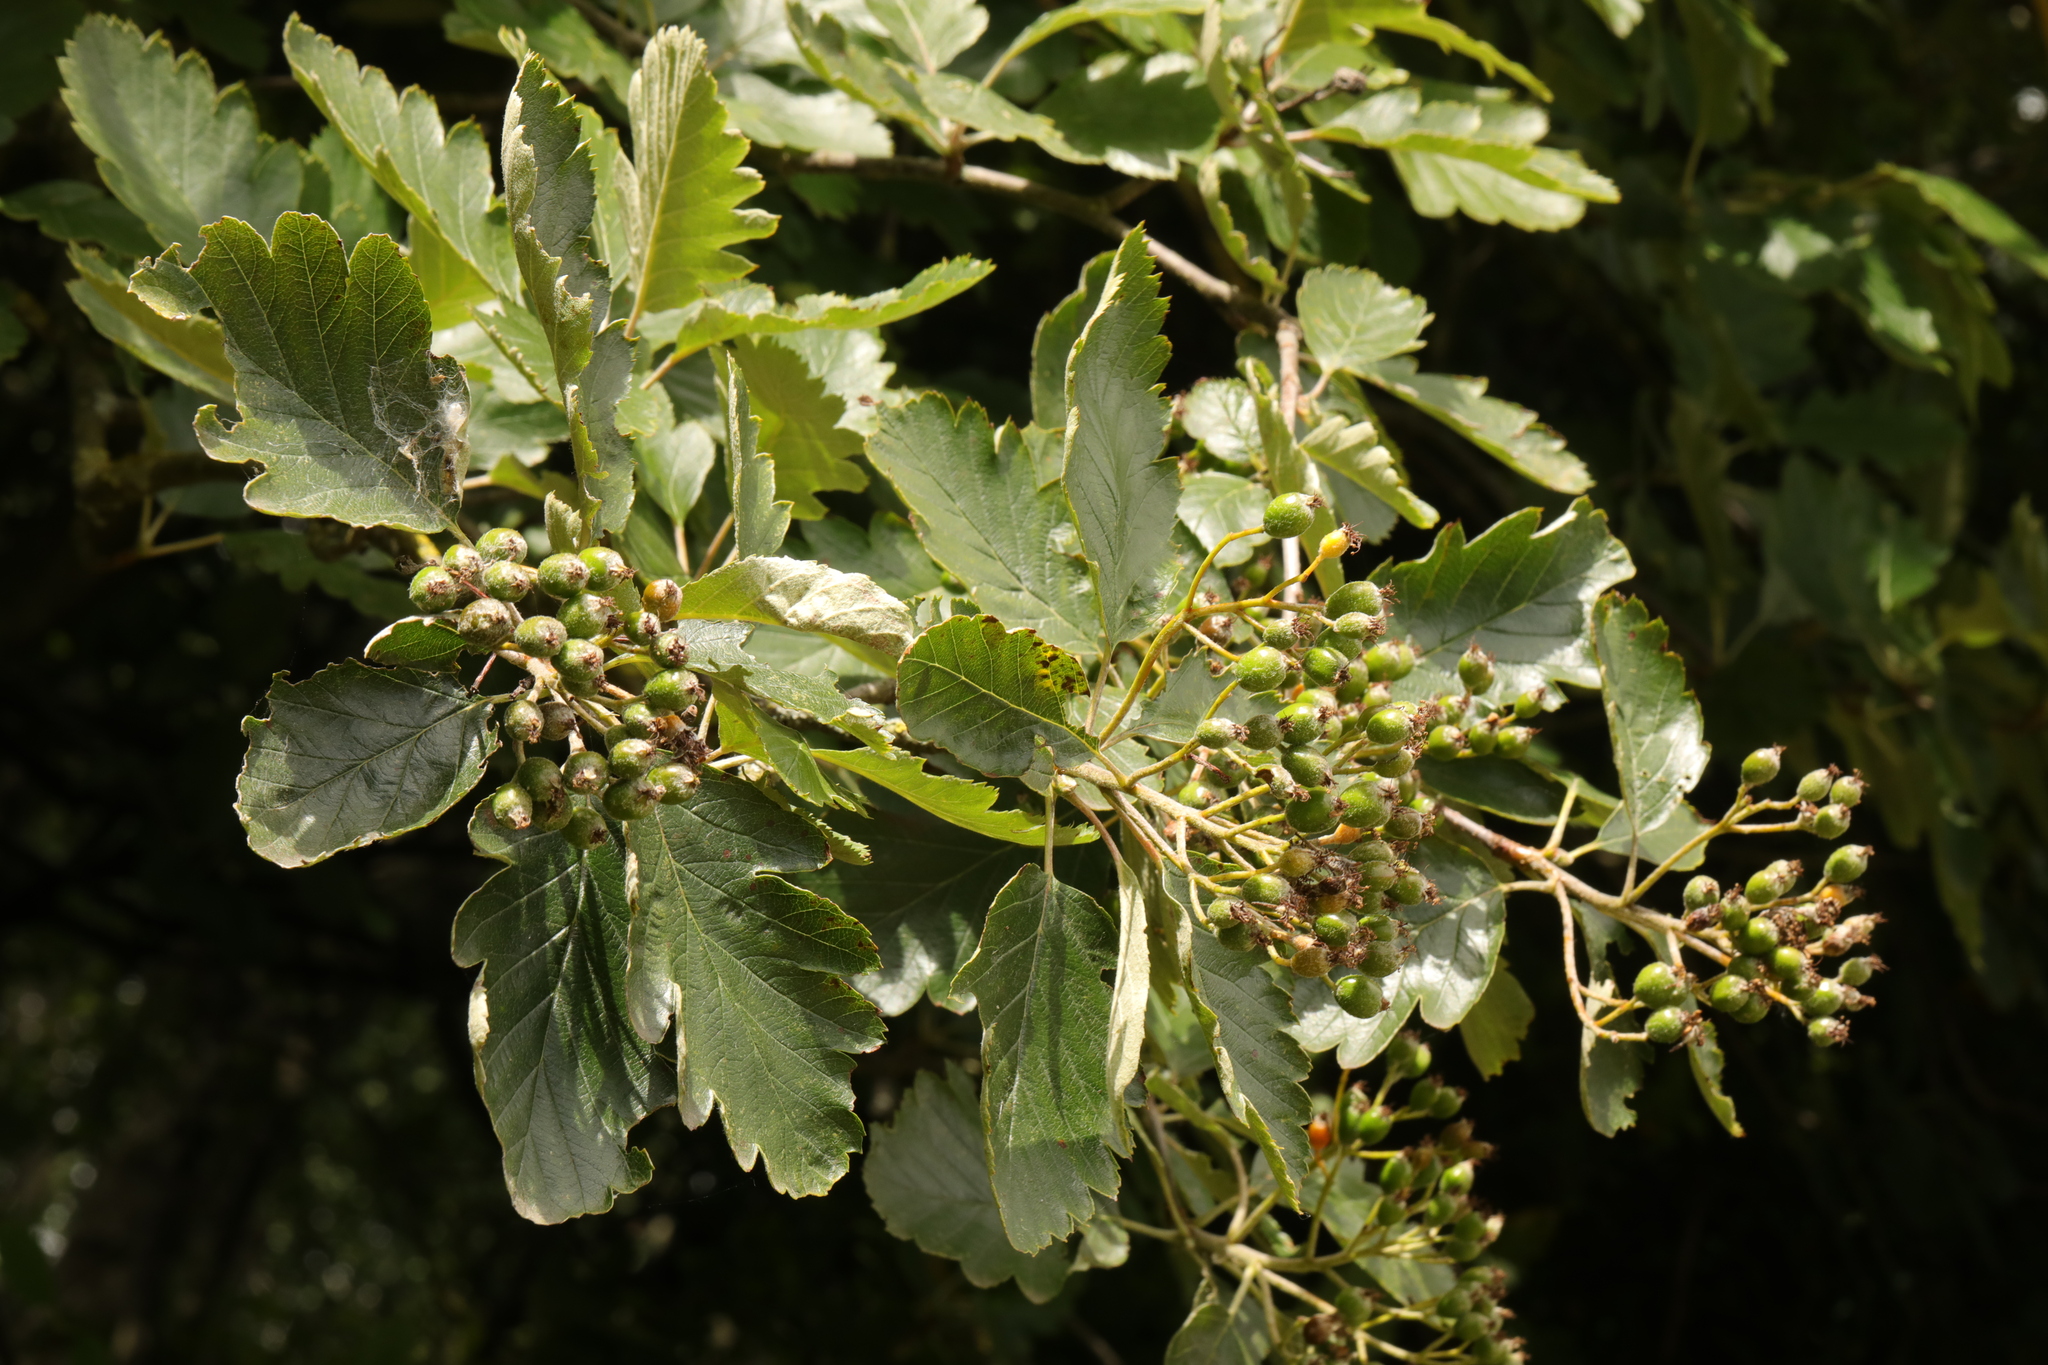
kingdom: Plantae
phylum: Tracheophyta
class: Magnoliopsida
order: Rosales
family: Rosaceae
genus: Scandosorbus
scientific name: Scandosorbus intermedia
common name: Swedish whitebeam
